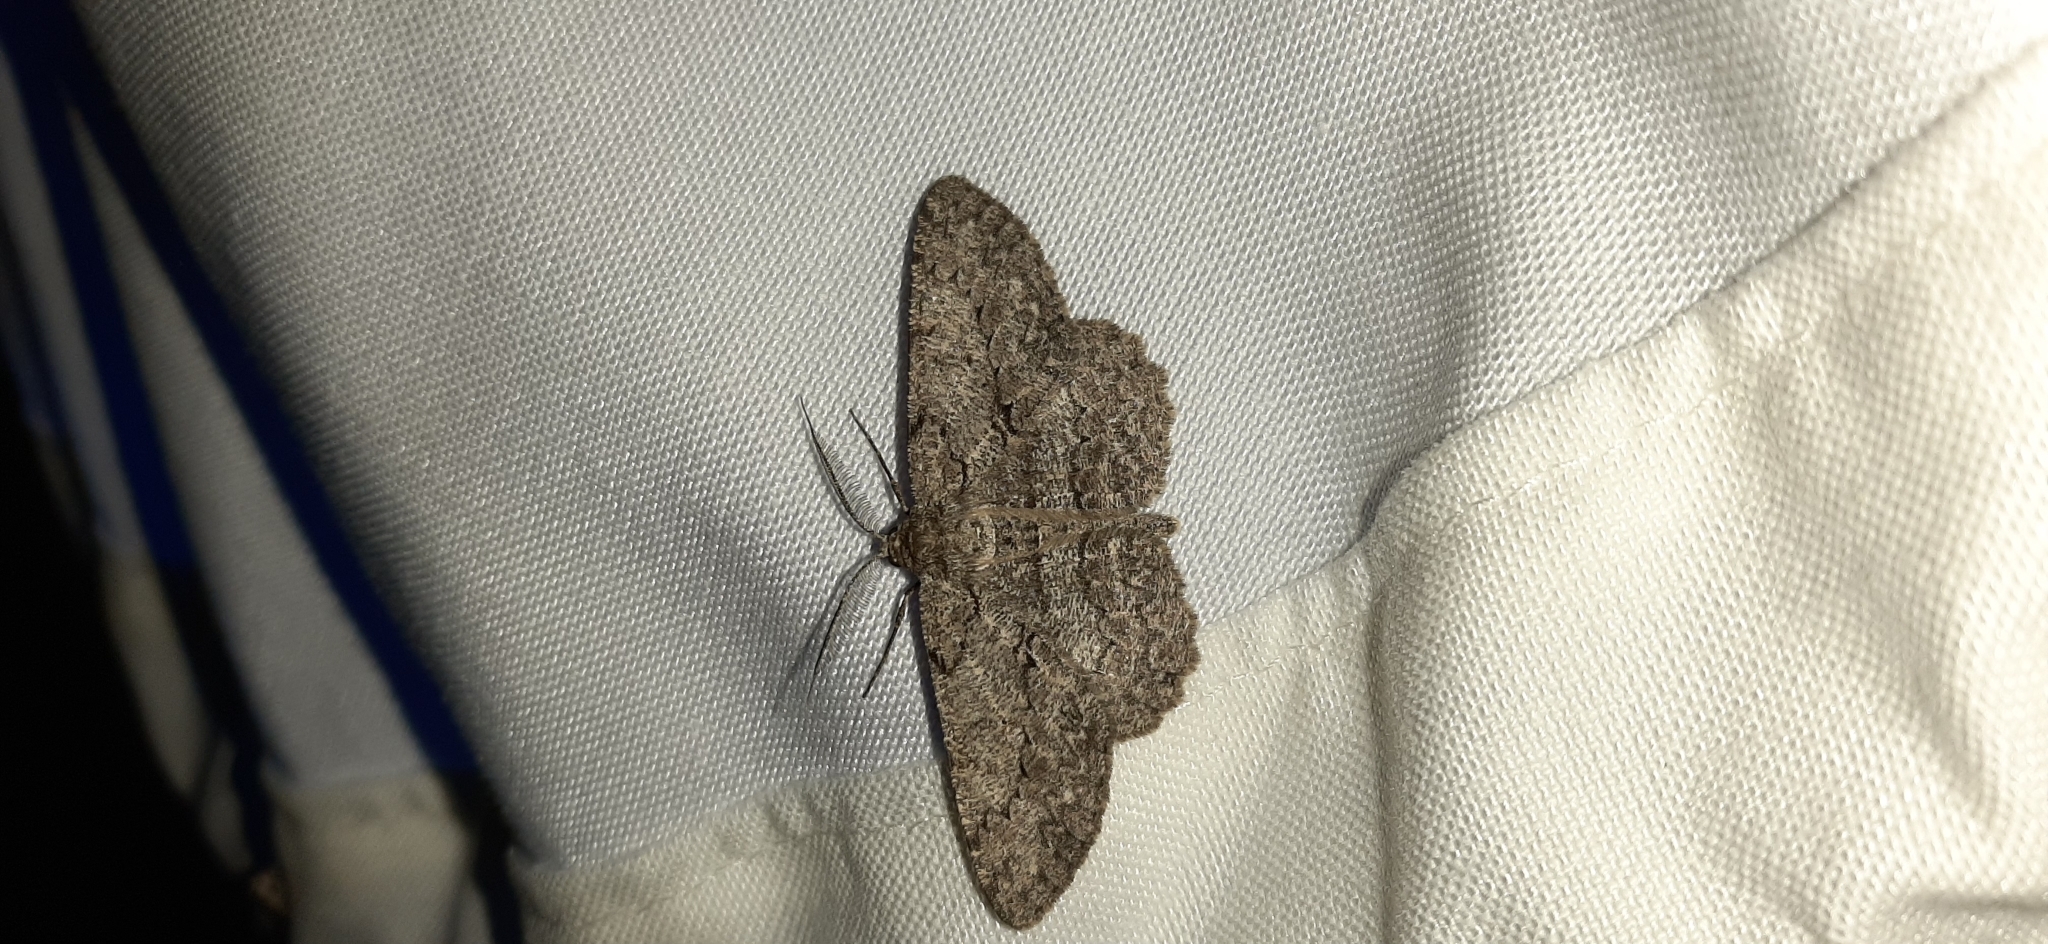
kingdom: Animalia
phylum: Arthropoda
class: Insecta
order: Lepidoptera
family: Geometridae
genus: Hypomecis
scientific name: Hypomecis punctinalis
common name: Pale oak beauty
